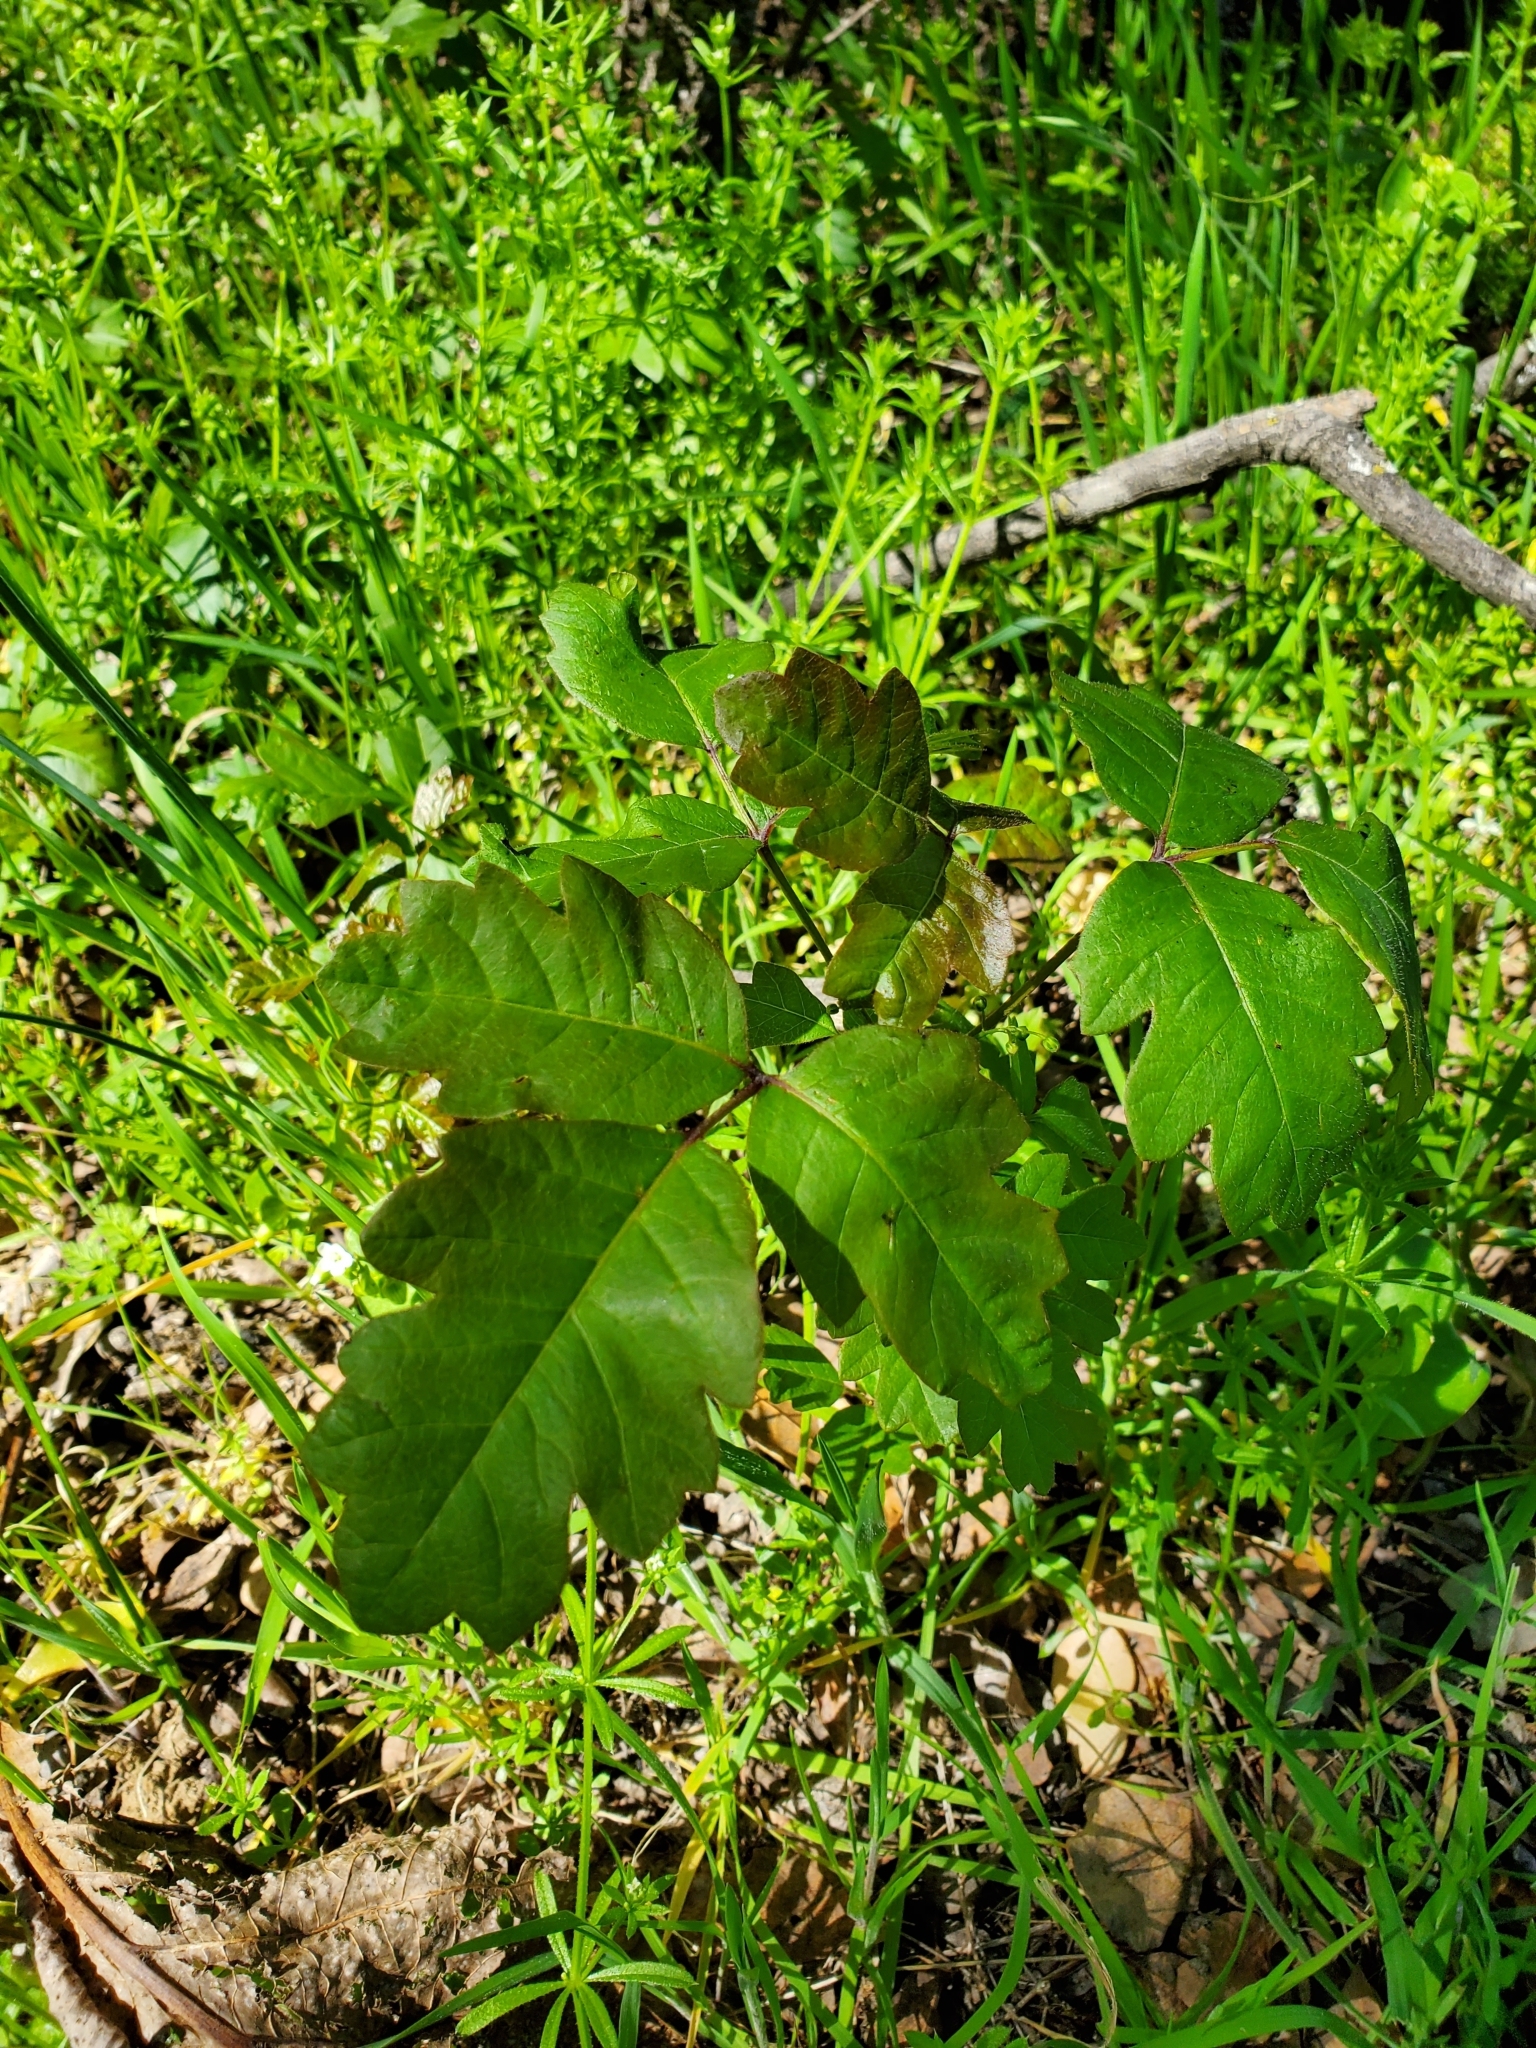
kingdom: Plantae
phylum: Tracheophyta
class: Magnoliopsida
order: Sapindales
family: Anacardiaceae
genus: Toxicodendron
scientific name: Toxicodendron diversilobum
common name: Pacific poison-oak
